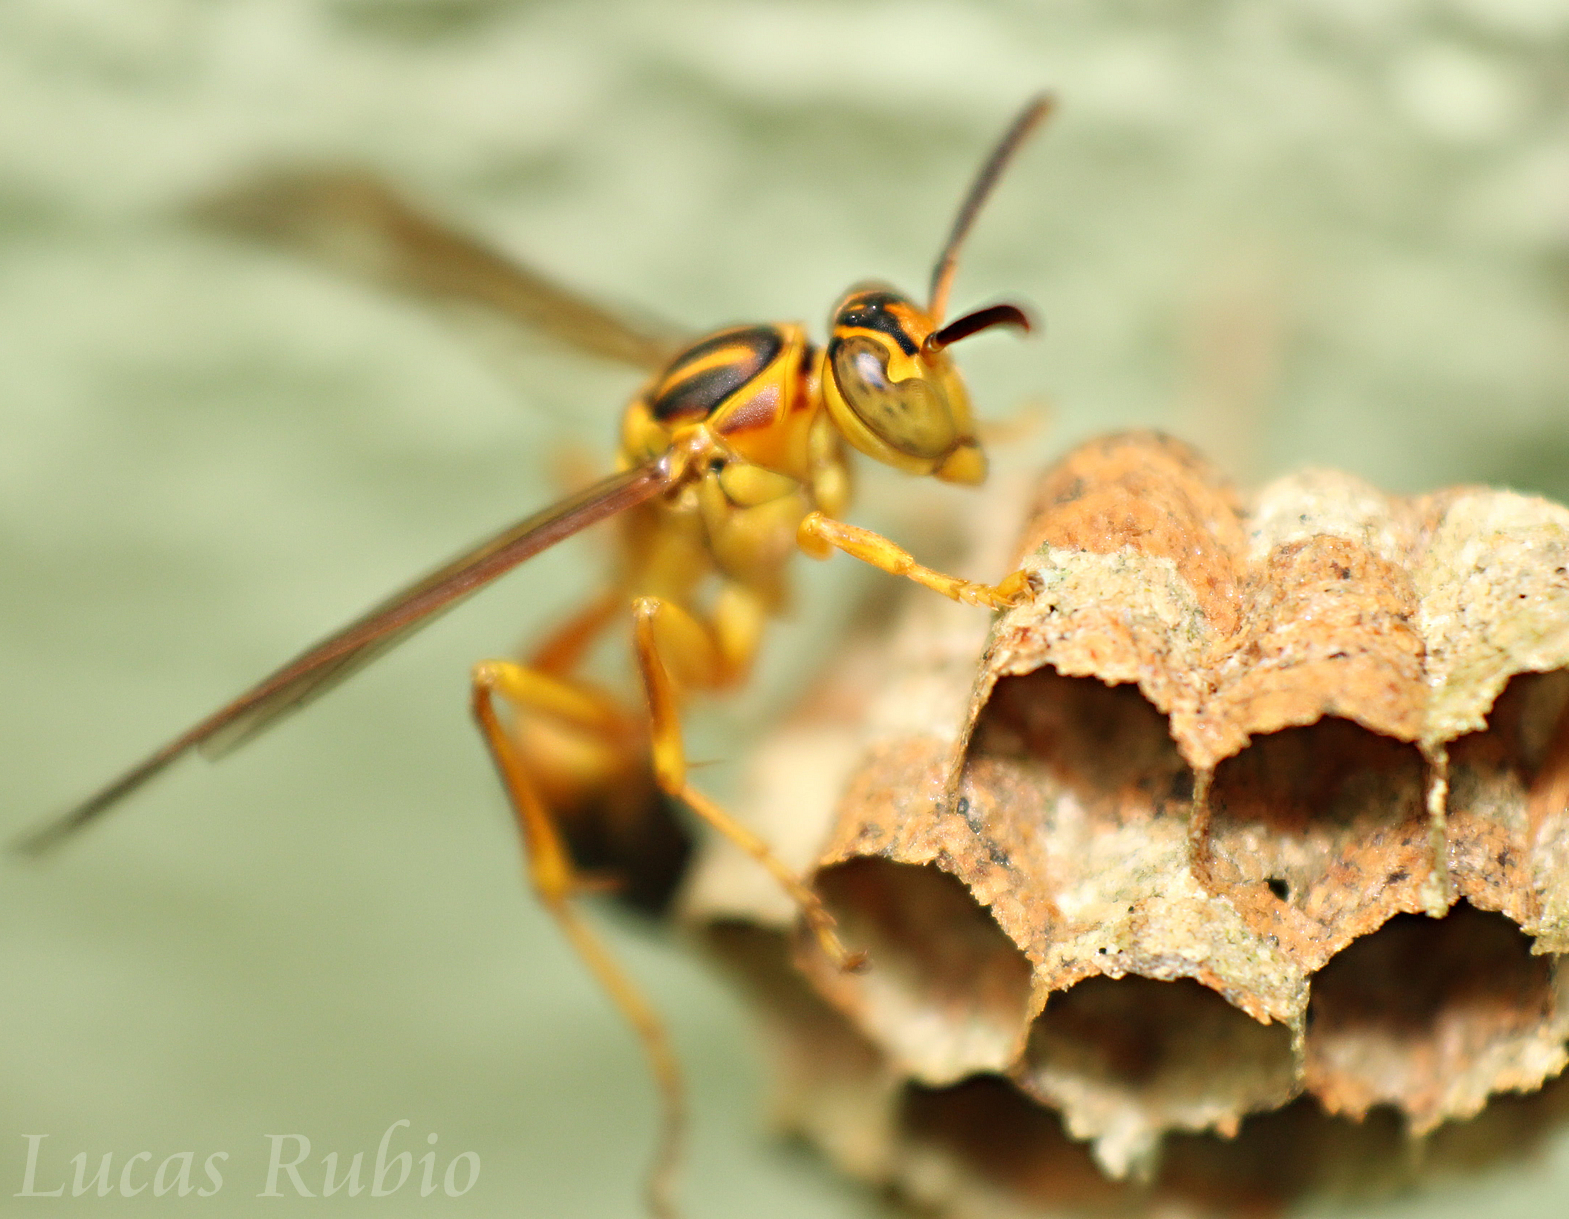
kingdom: Animalia
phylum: Arthropoda
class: Insecta
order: Hymenoptera
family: Vespidae
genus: Mischocyttarus
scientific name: Mischocyttarus cerberus
